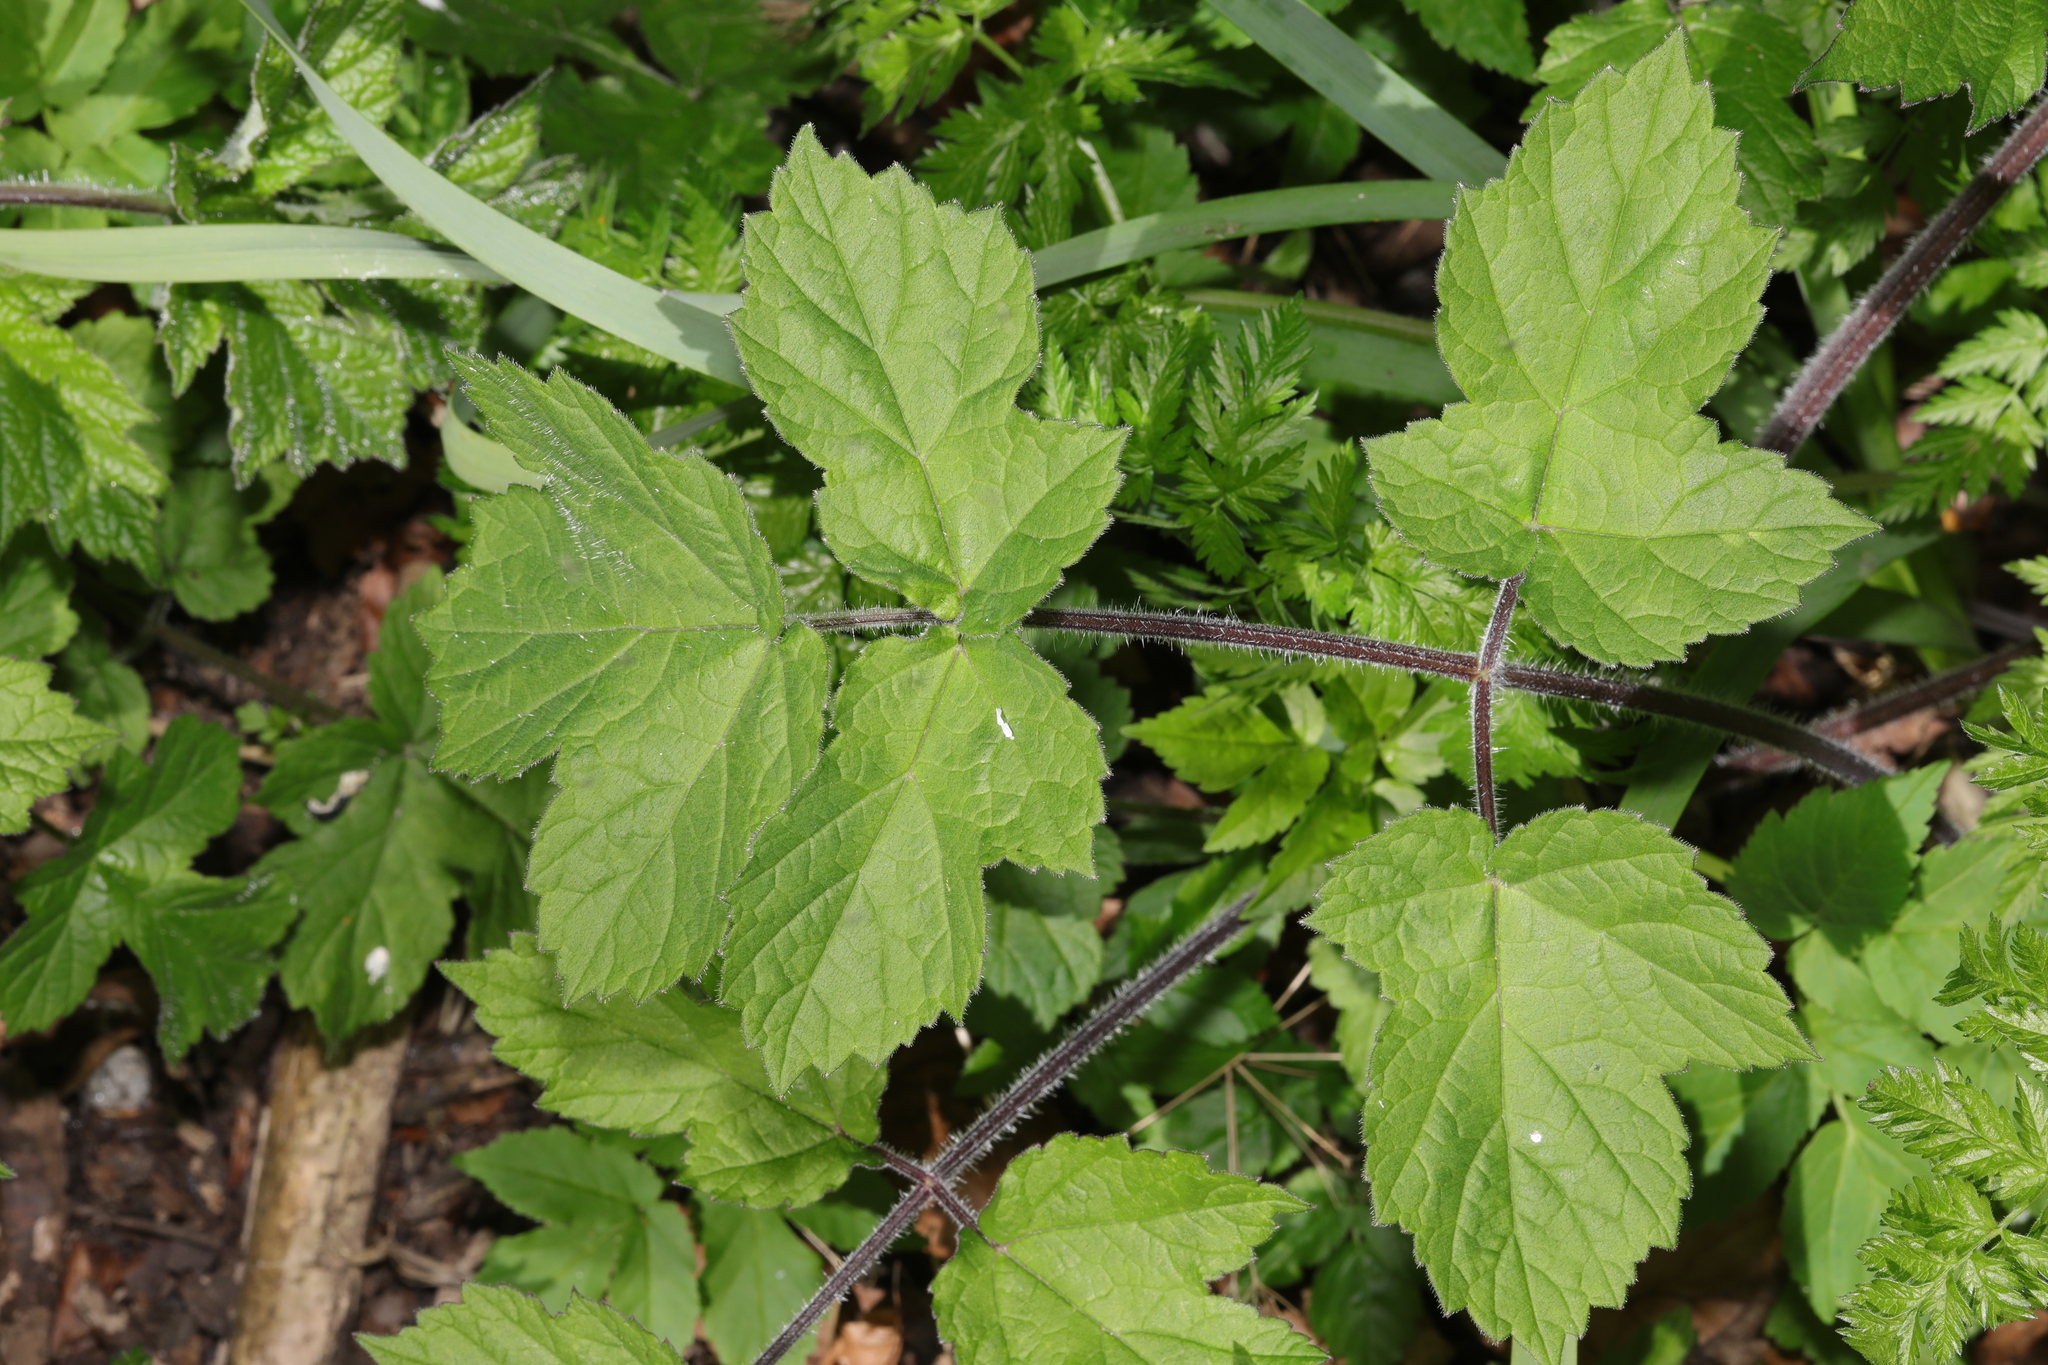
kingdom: Plantae
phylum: Tracheophyta
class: Magnoliopsida
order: Apiales
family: Apiaceae
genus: Heracleum
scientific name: Heracleum sphondylium
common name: Hogweed
